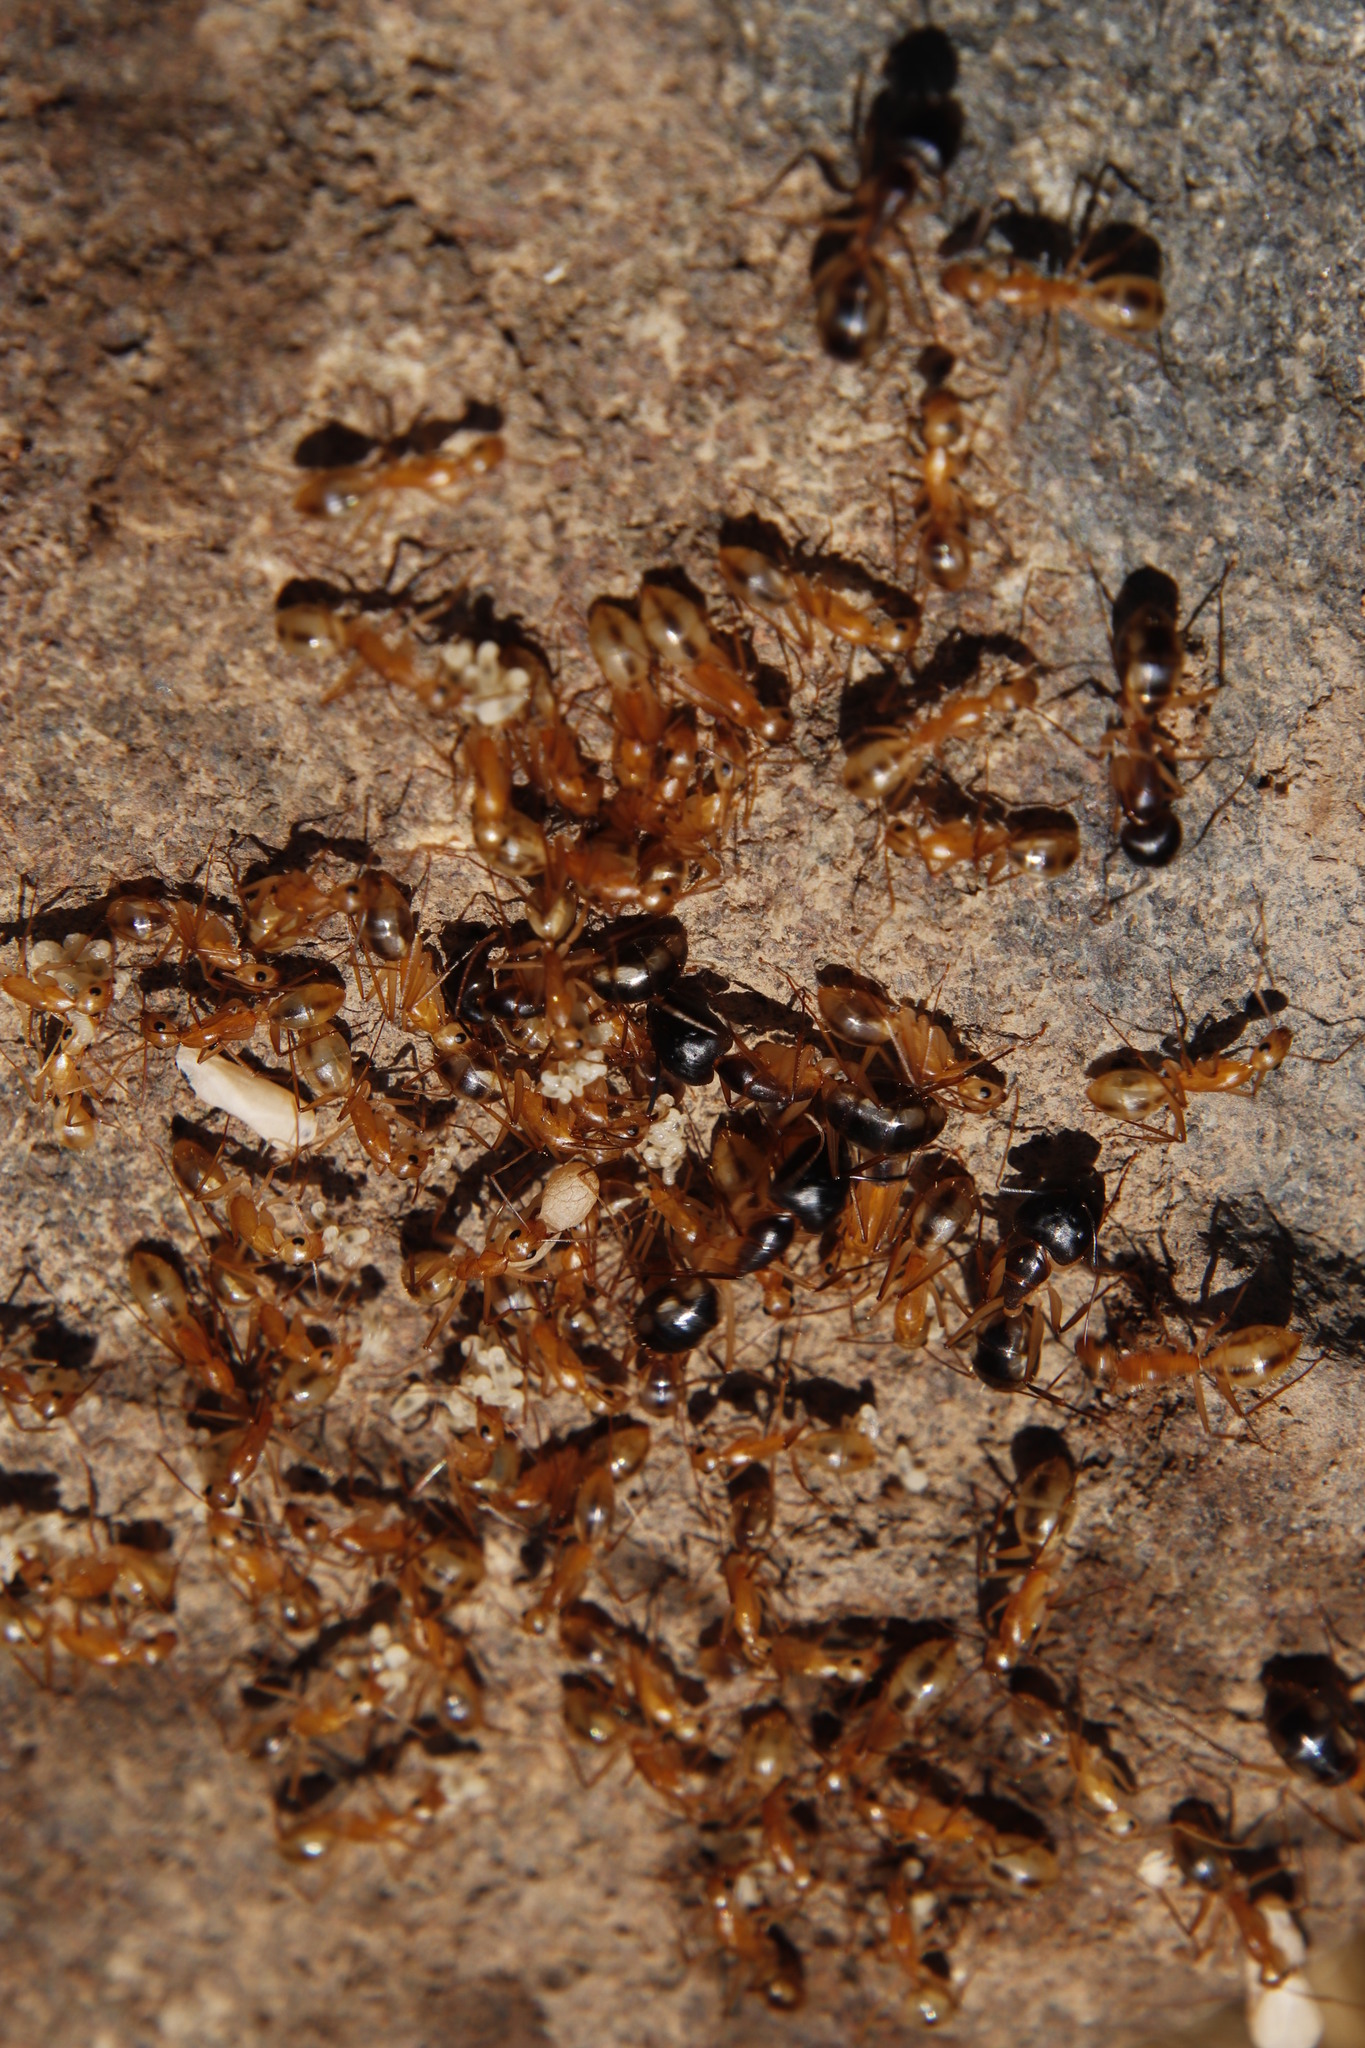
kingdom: Animalia
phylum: Arthropoda
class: Insecta
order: Hymenoptera
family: Formicidae
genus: Camponotus
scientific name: Camponotus maculatus
